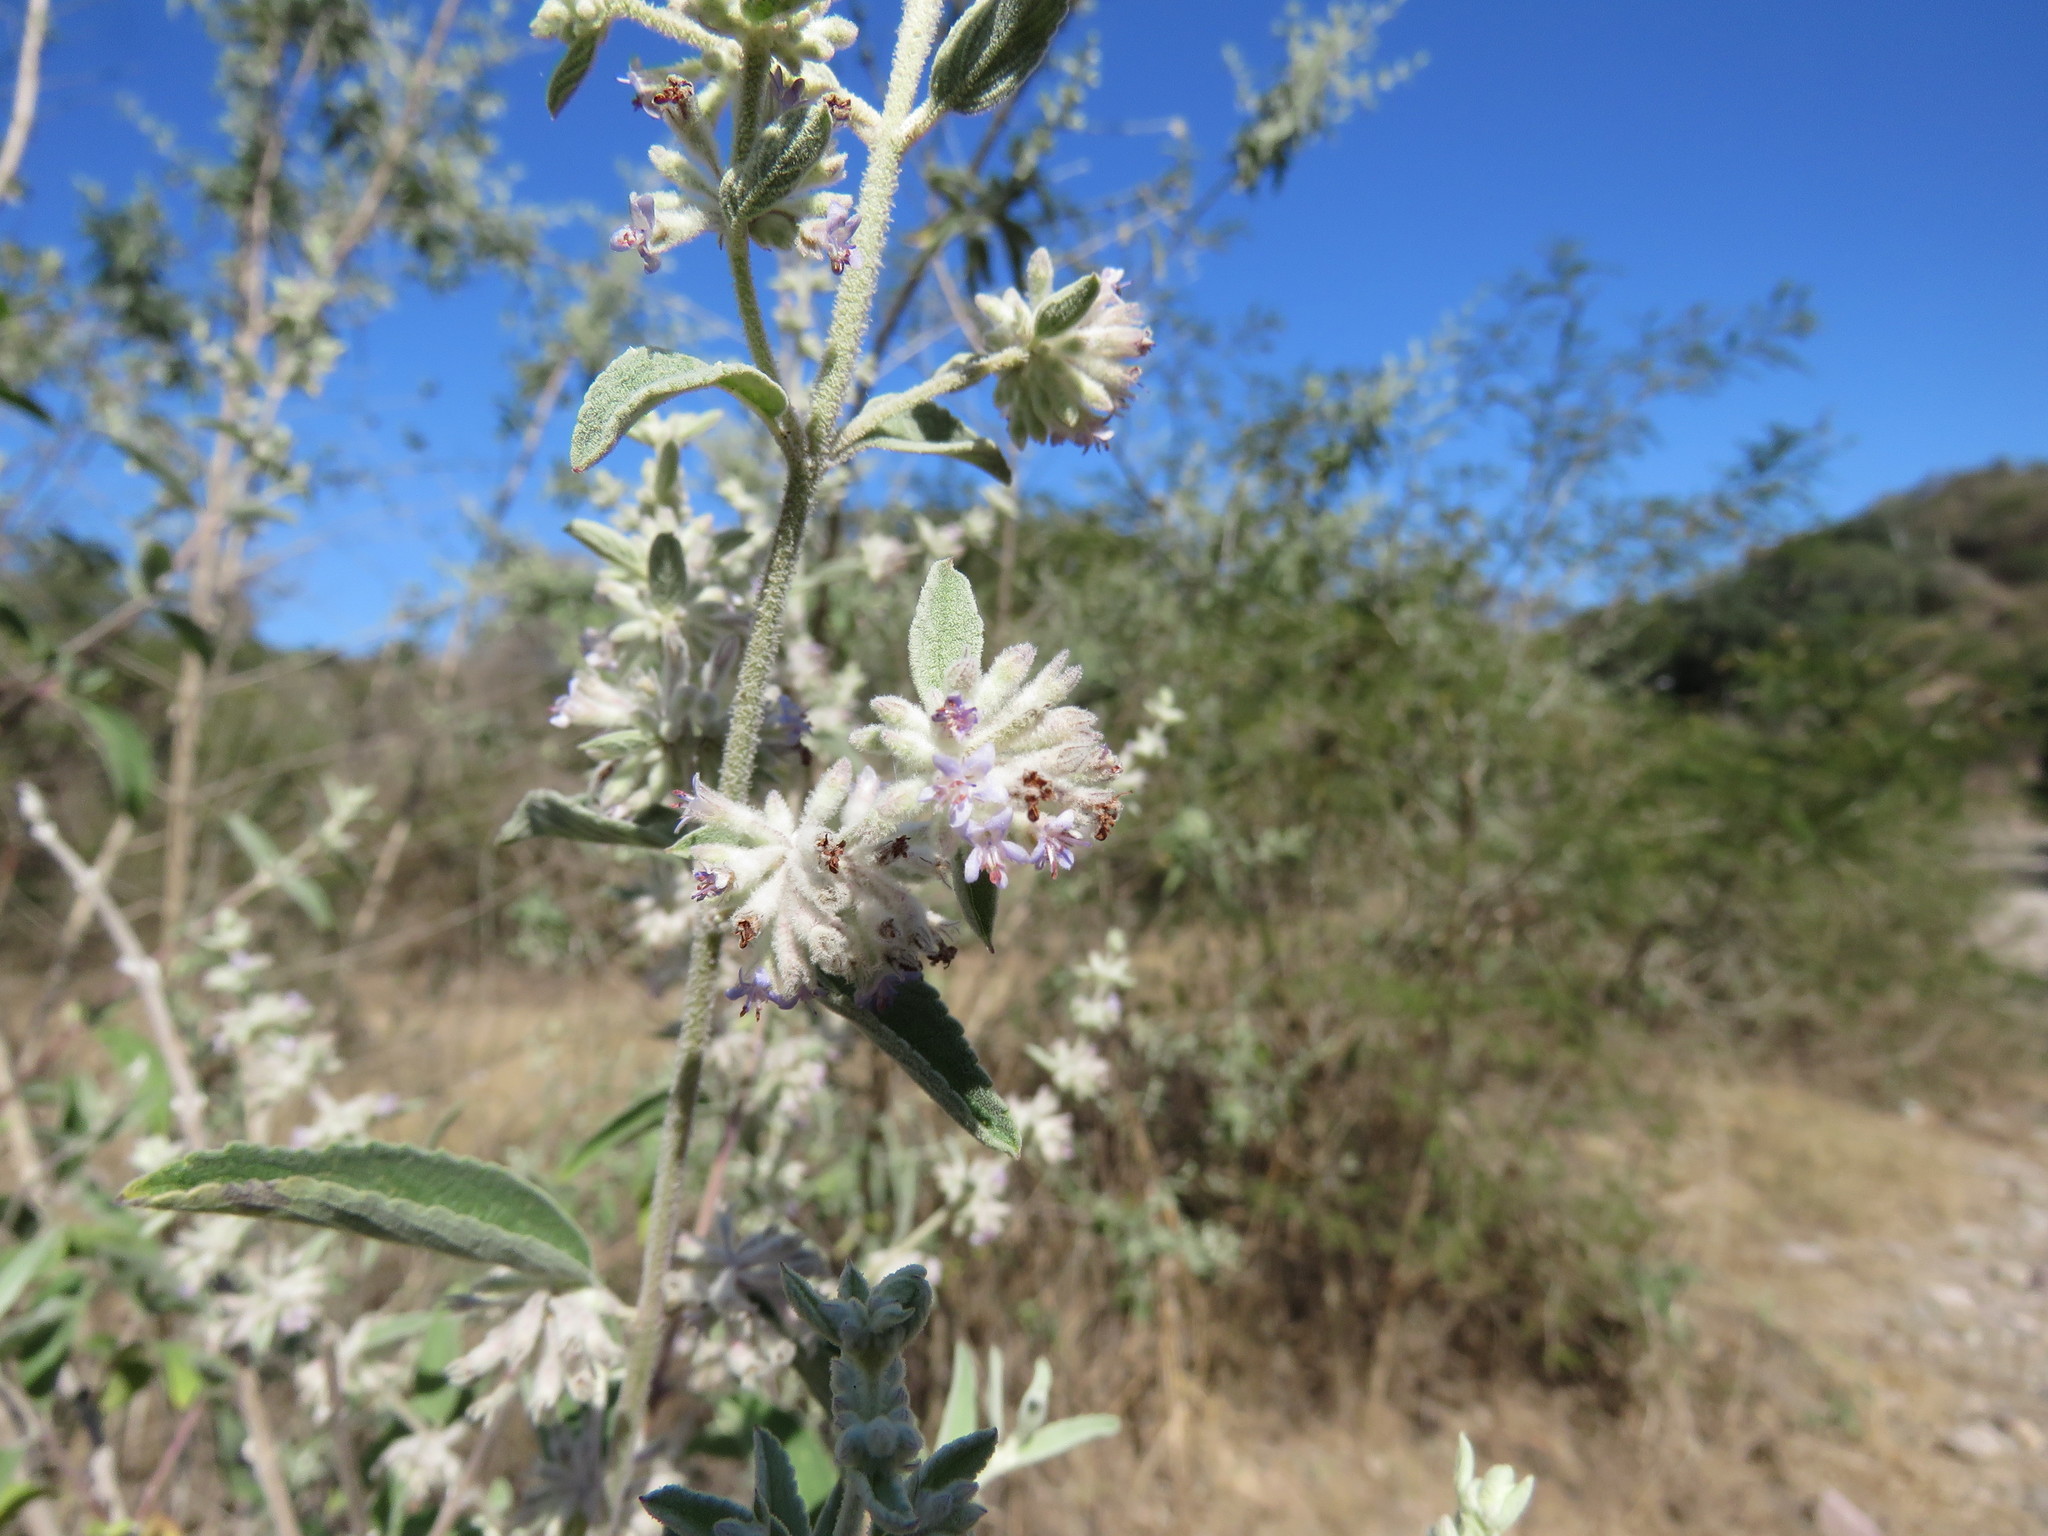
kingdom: Plantae
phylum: Tracheophyta
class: Magnoliopsida
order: Lamiales
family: Lamiaceae
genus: Condea
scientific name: Condea albida
